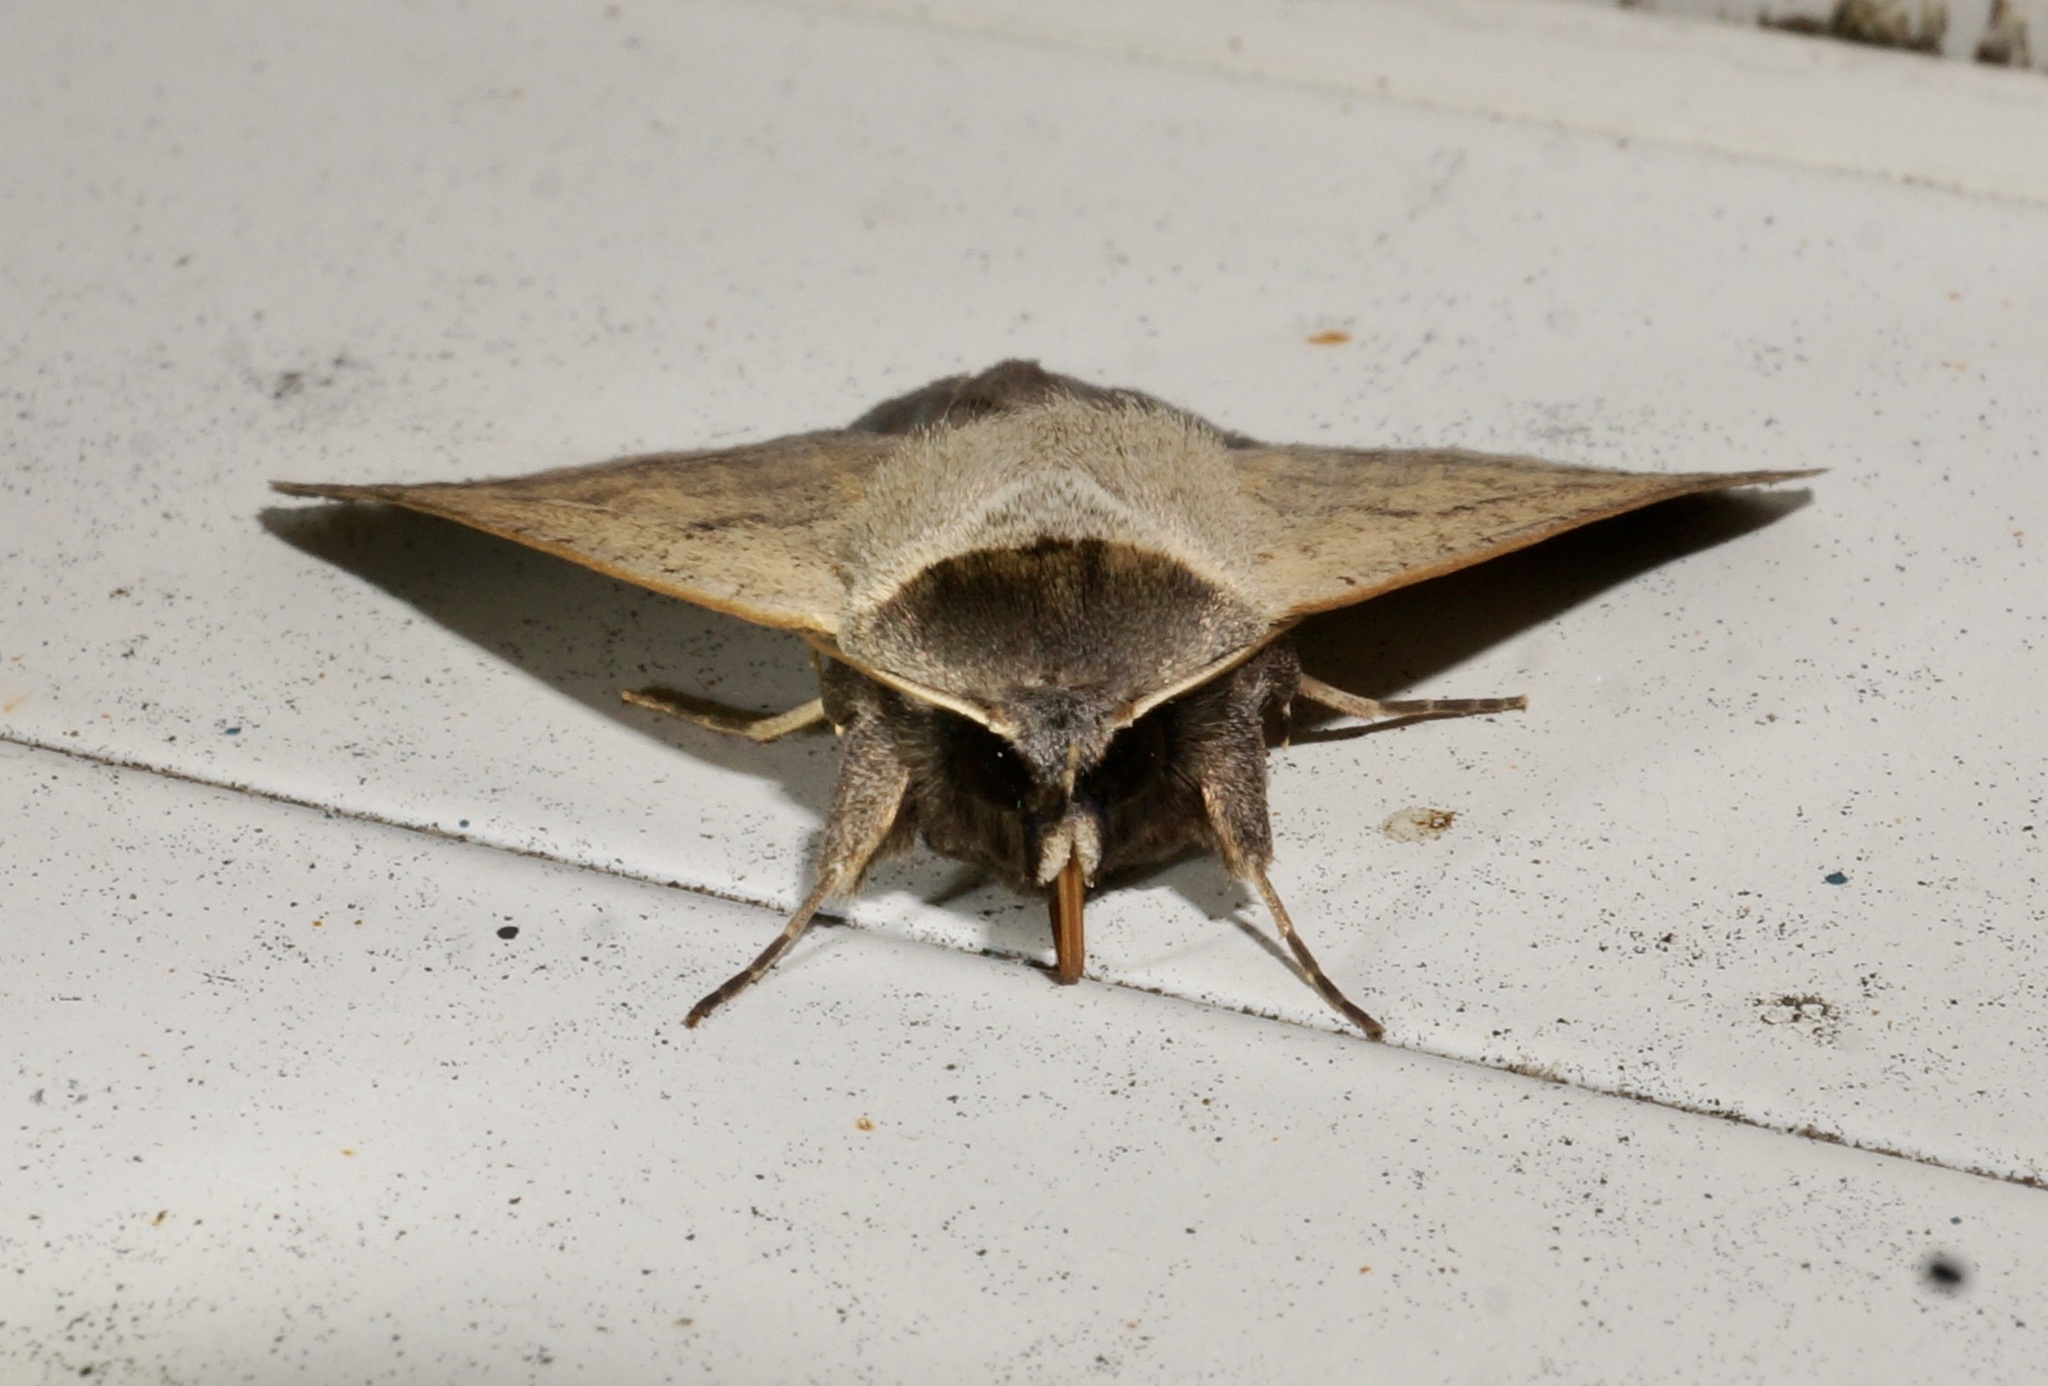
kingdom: Animalia
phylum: Arthropoda
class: Insecta
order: Lepidoptera
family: Erebidae
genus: Pantydia
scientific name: Pantydia sparsa
